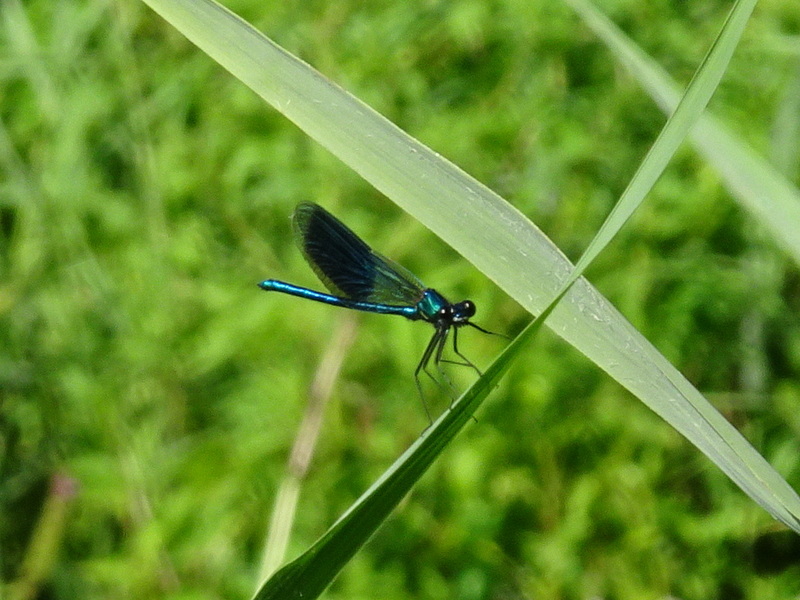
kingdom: Animalia
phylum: Arthropoda
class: Insecta
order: Odonata
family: Calopterygidae
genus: Calopteryx
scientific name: Calopteryx splendens
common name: Banded demoiselle
